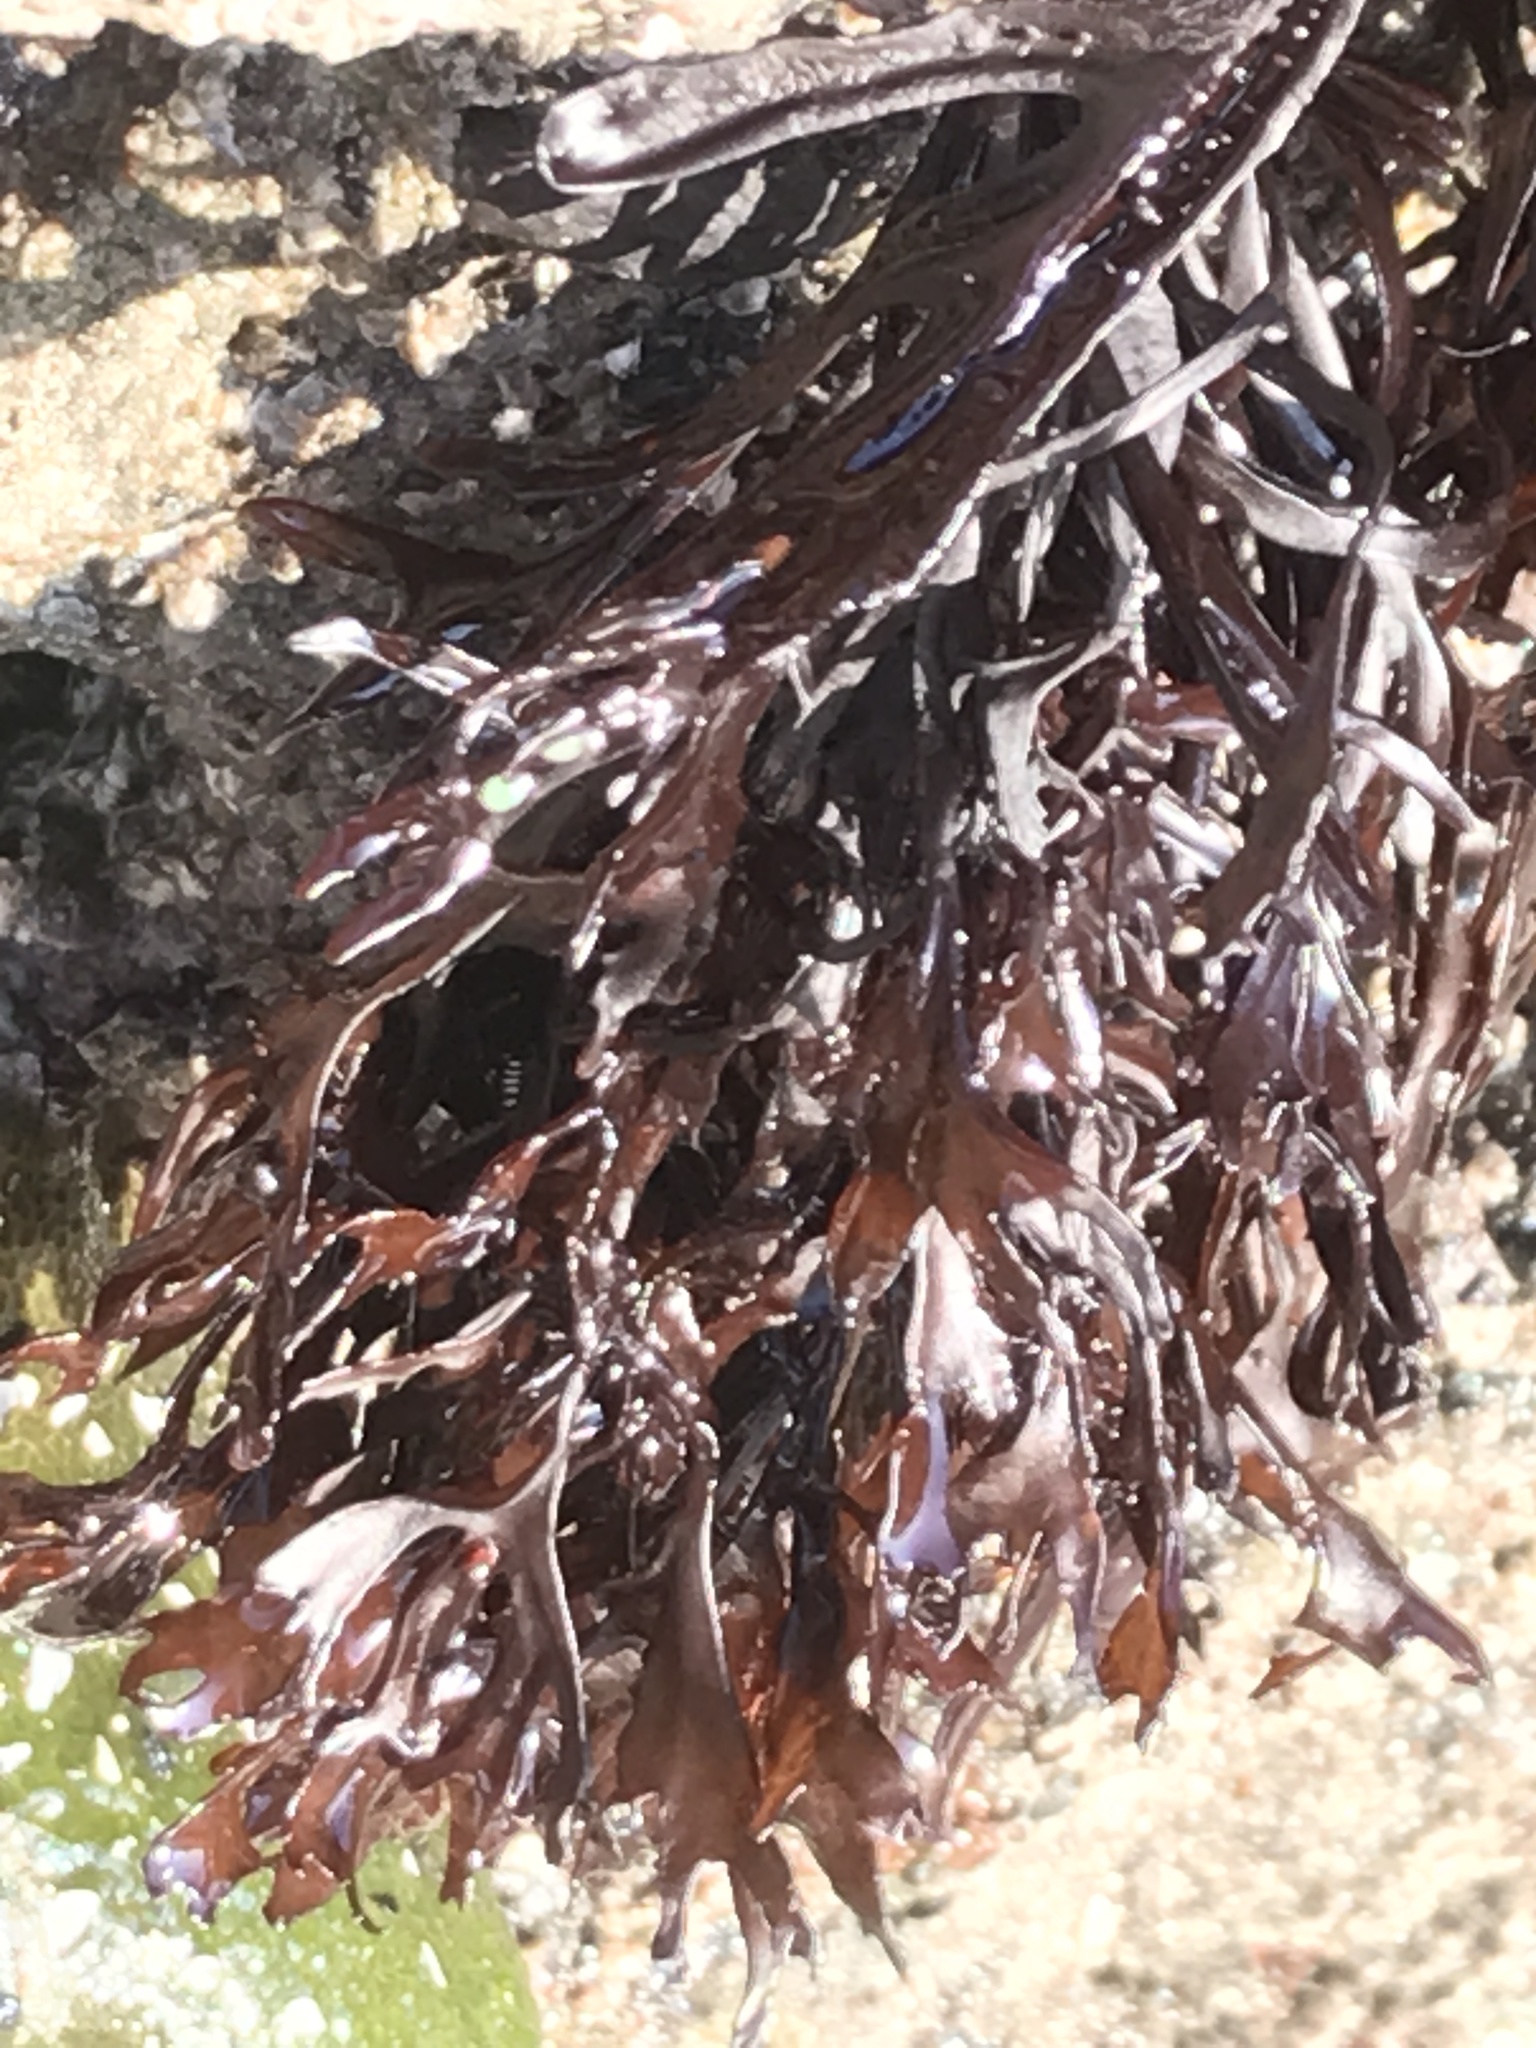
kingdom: Plantae
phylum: Rhodophyta
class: Florideophyceae
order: Gigartinales
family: Phyllophoraceae
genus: Mastocarpus
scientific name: Mastocarpus jardinii
